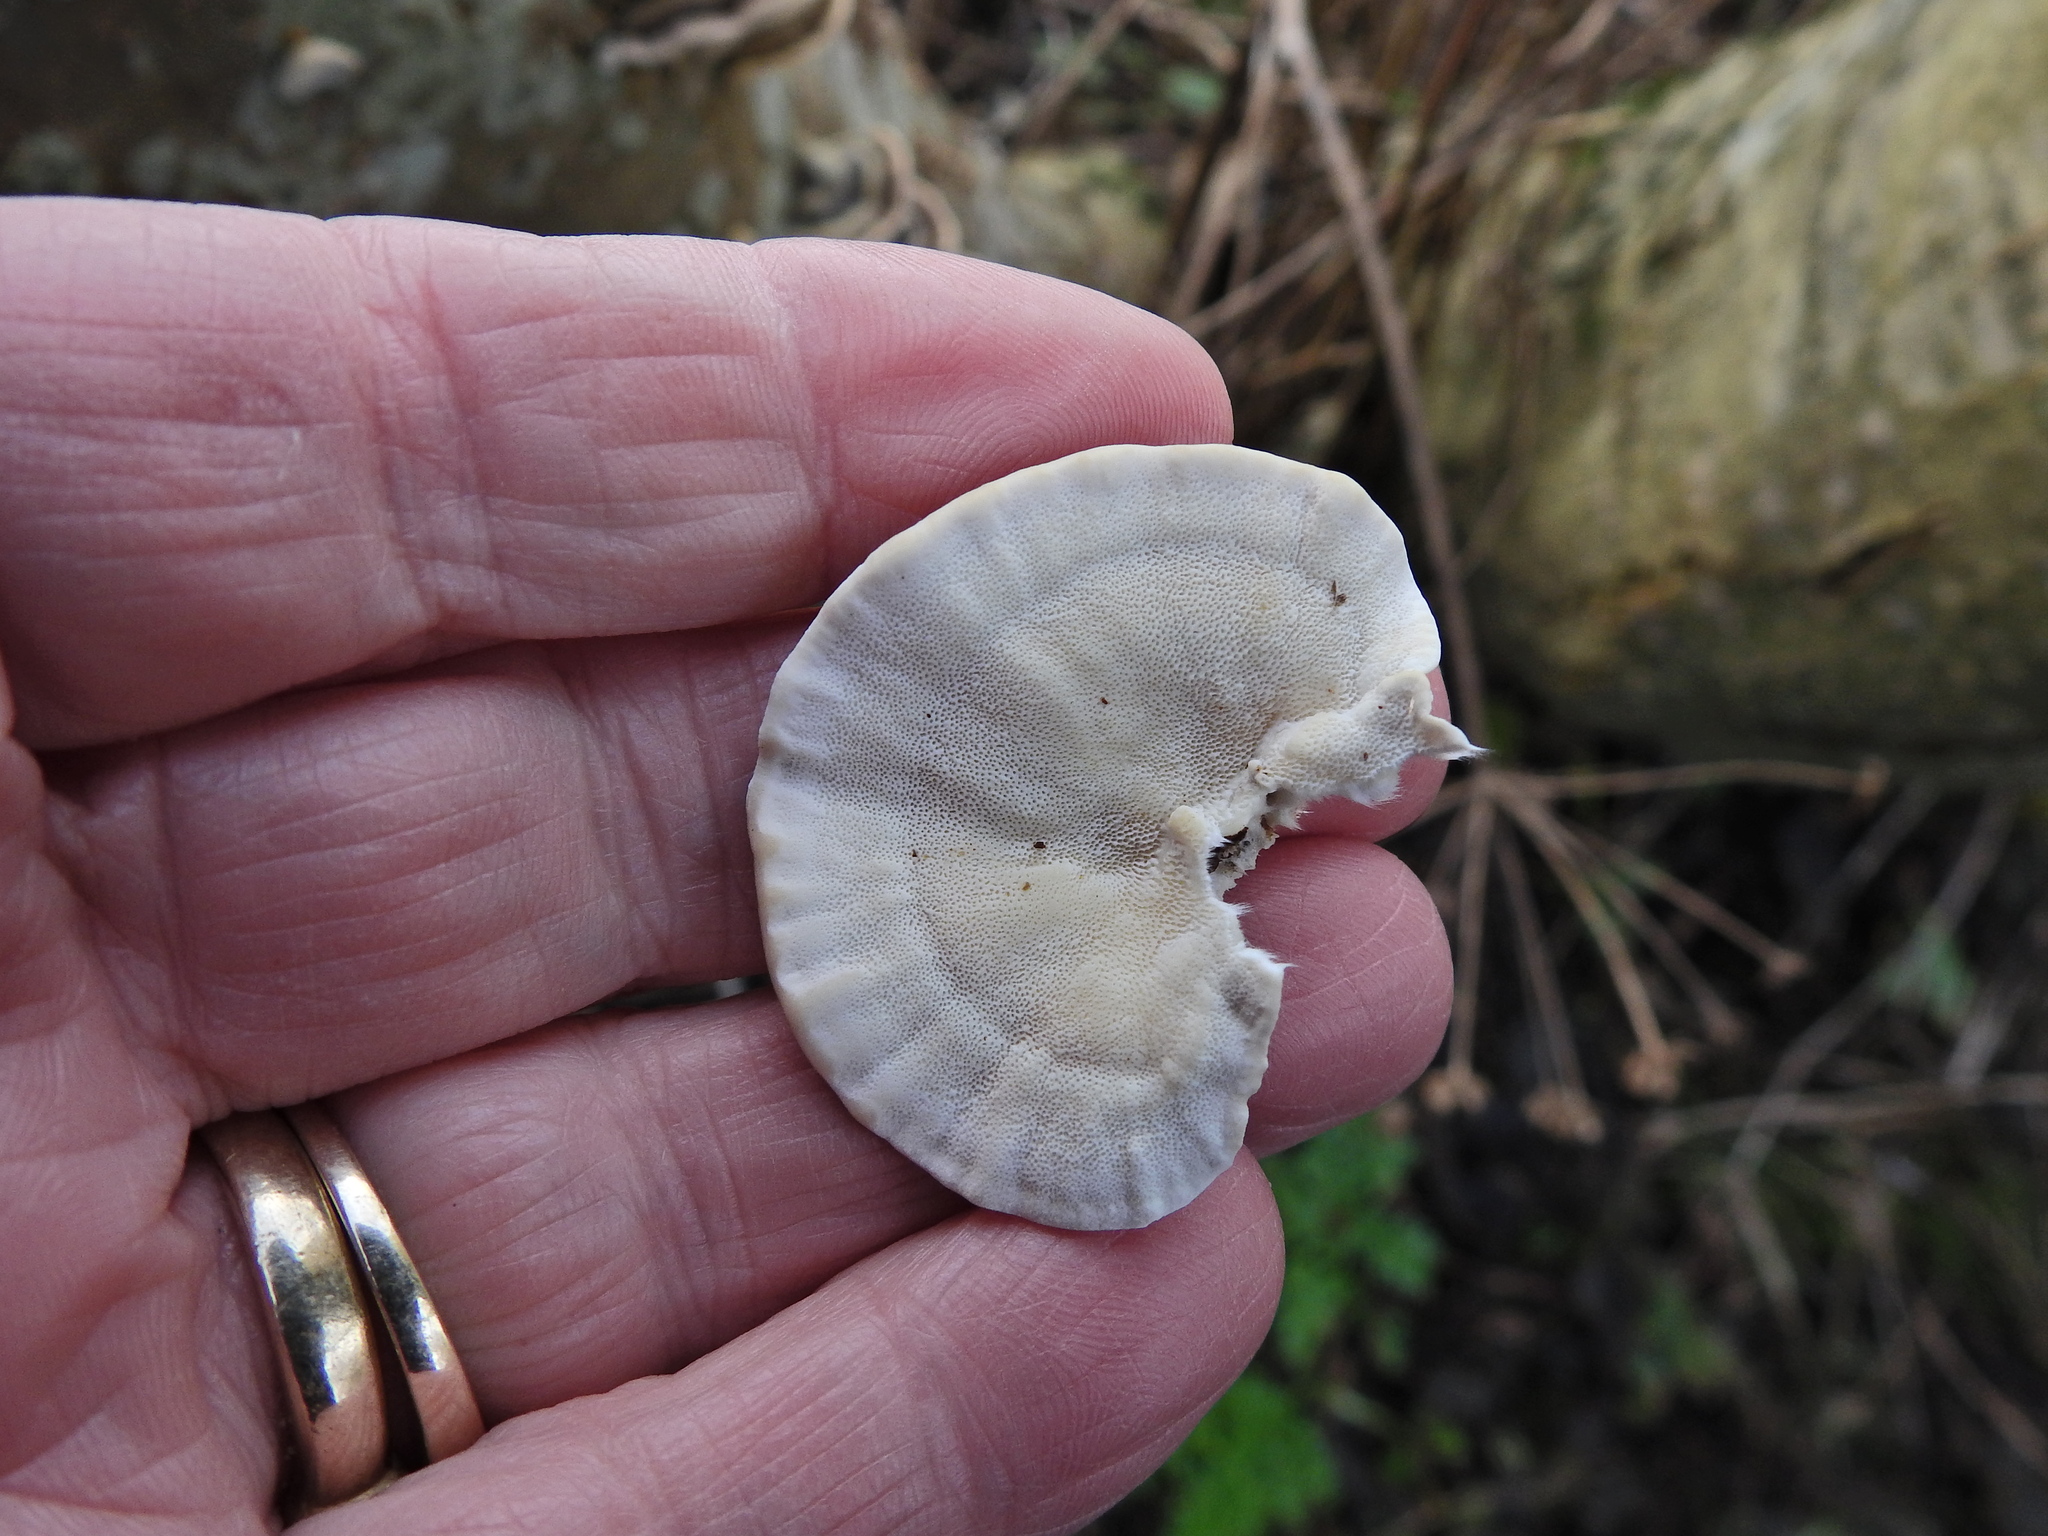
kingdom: Fungi
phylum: Basidiomycota
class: Agaricomycetes
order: Polyporales
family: Polyporaceae
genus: Trametes
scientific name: Trametes versicolor
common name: Turkeytail
